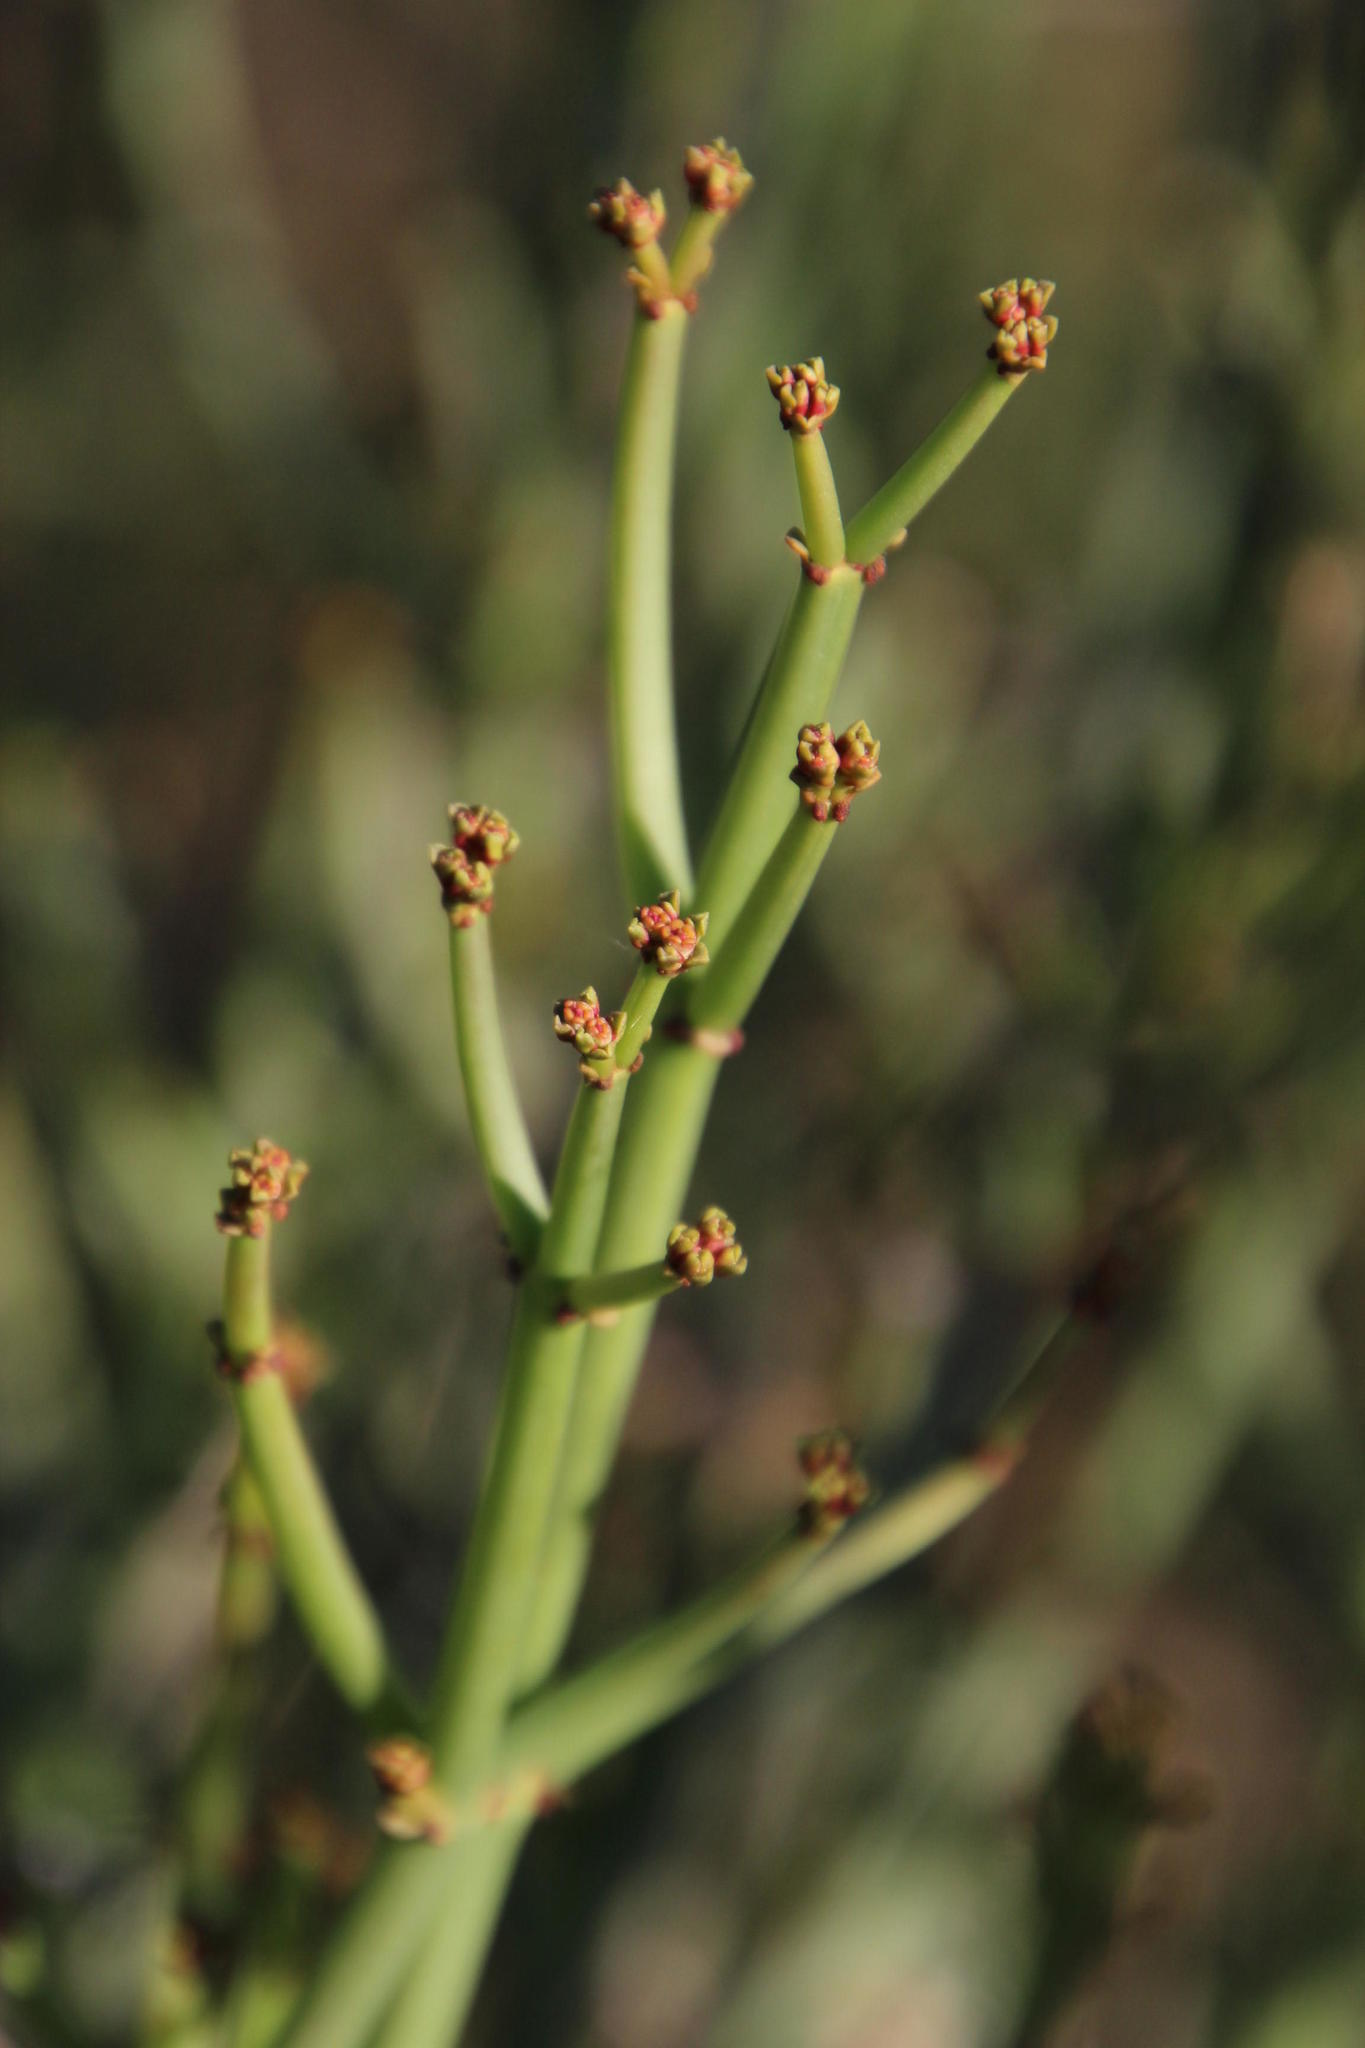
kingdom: Plantae
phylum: Tracheophyta
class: Magnoliopsida
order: Malpighiales
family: Euphorbiaceae
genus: Euphorbia
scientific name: Euphorbia burmanni
